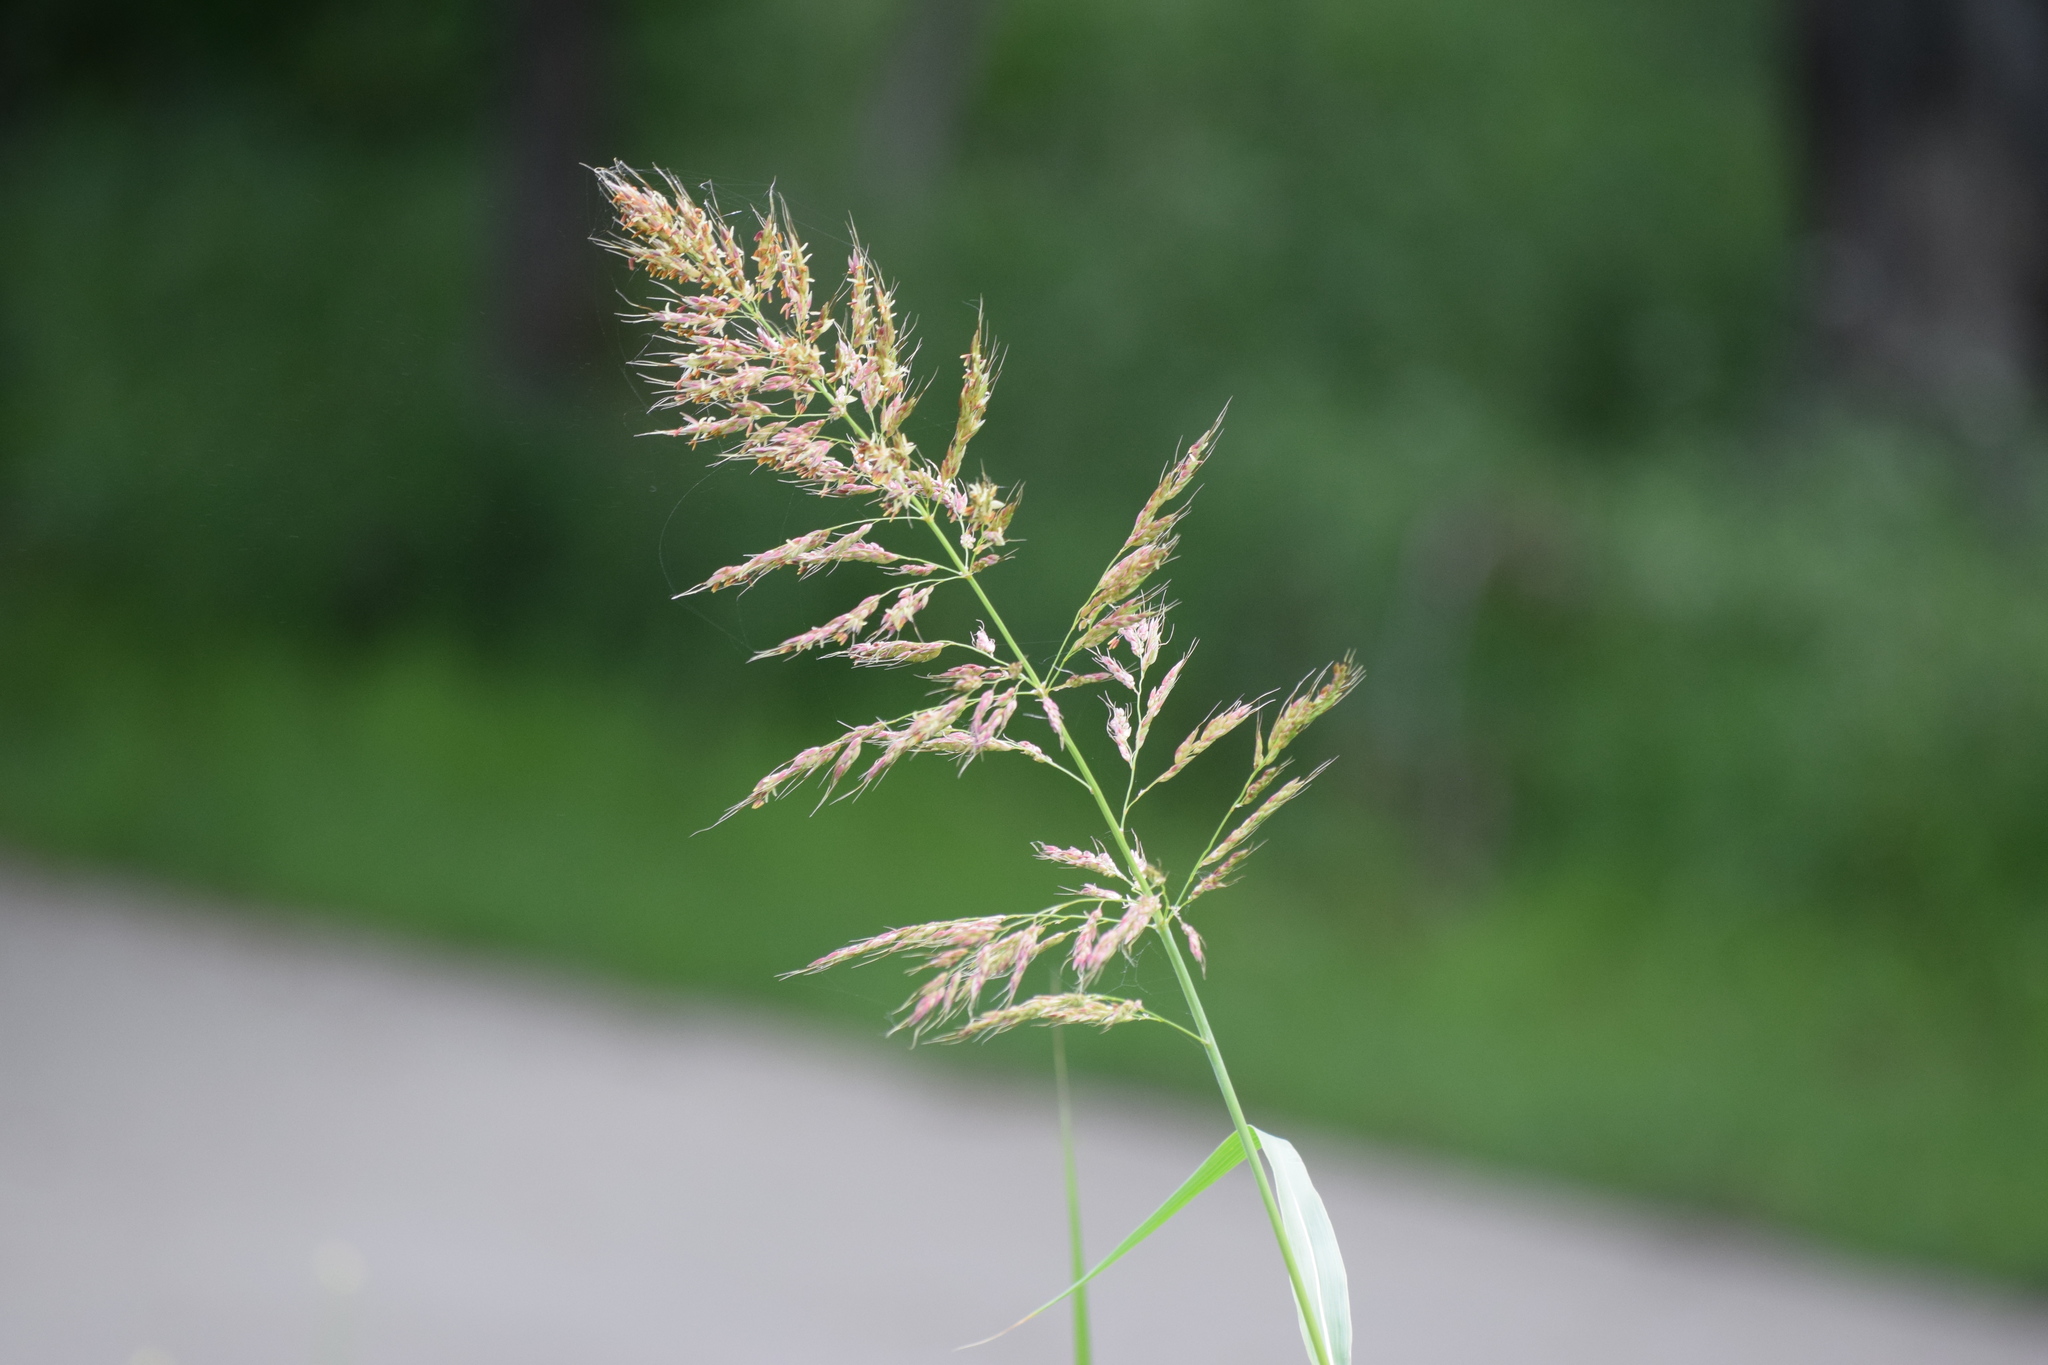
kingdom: Plantae
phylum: Tracheophyta
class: Liliopsida
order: Poales
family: Poaceae
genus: Sorghum
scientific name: Sorghum halepense
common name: Johnson-grass
